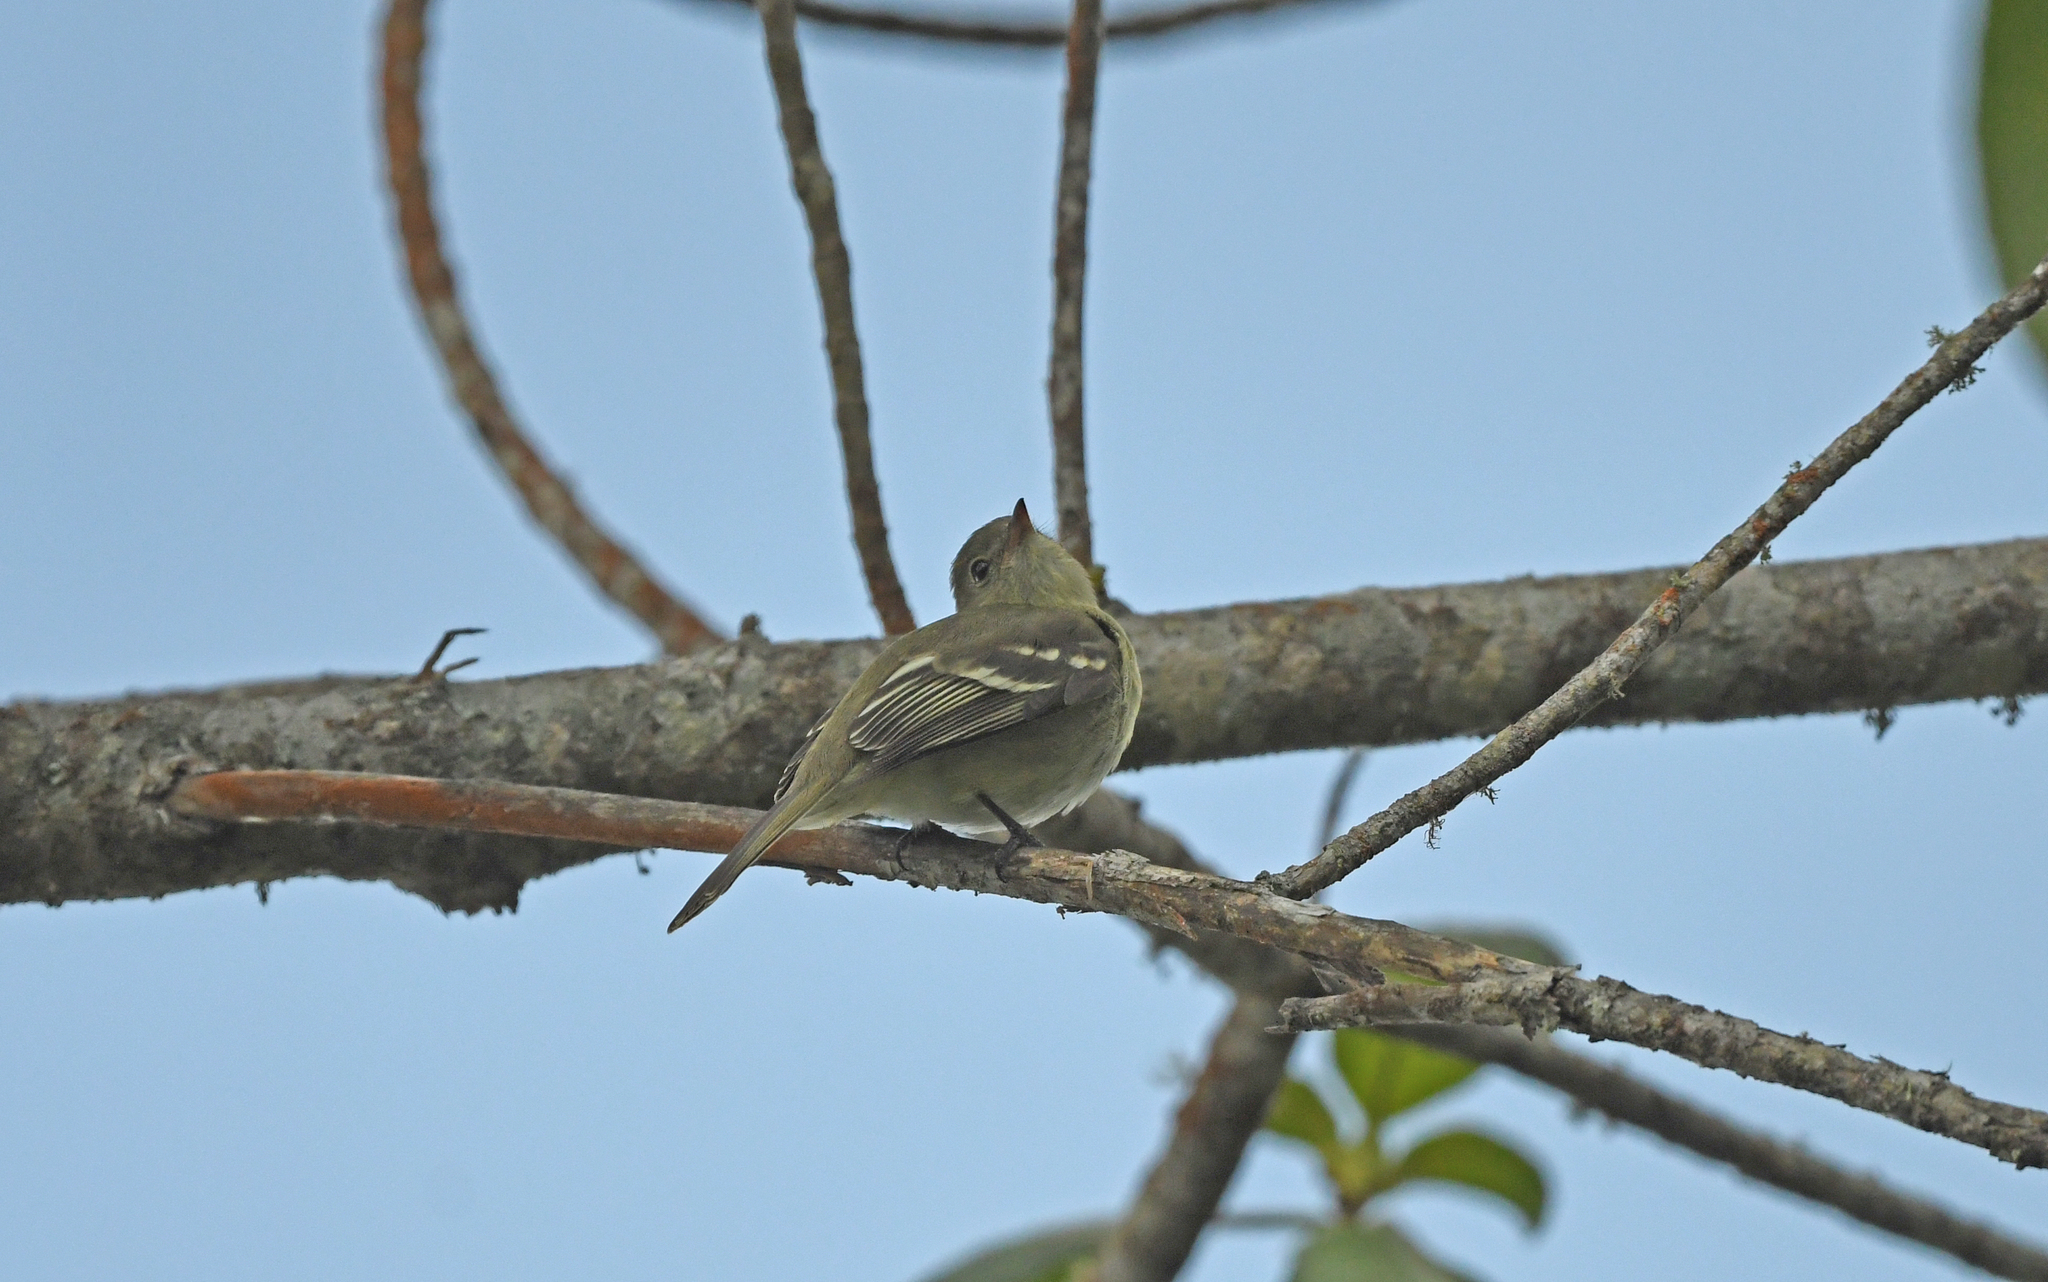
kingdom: Animalia
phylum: Chordata
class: Aves
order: Passeriformes
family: Tyrannidae
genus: Elaenia
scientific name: Elaenia frantzii
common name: Mountain elaenia
